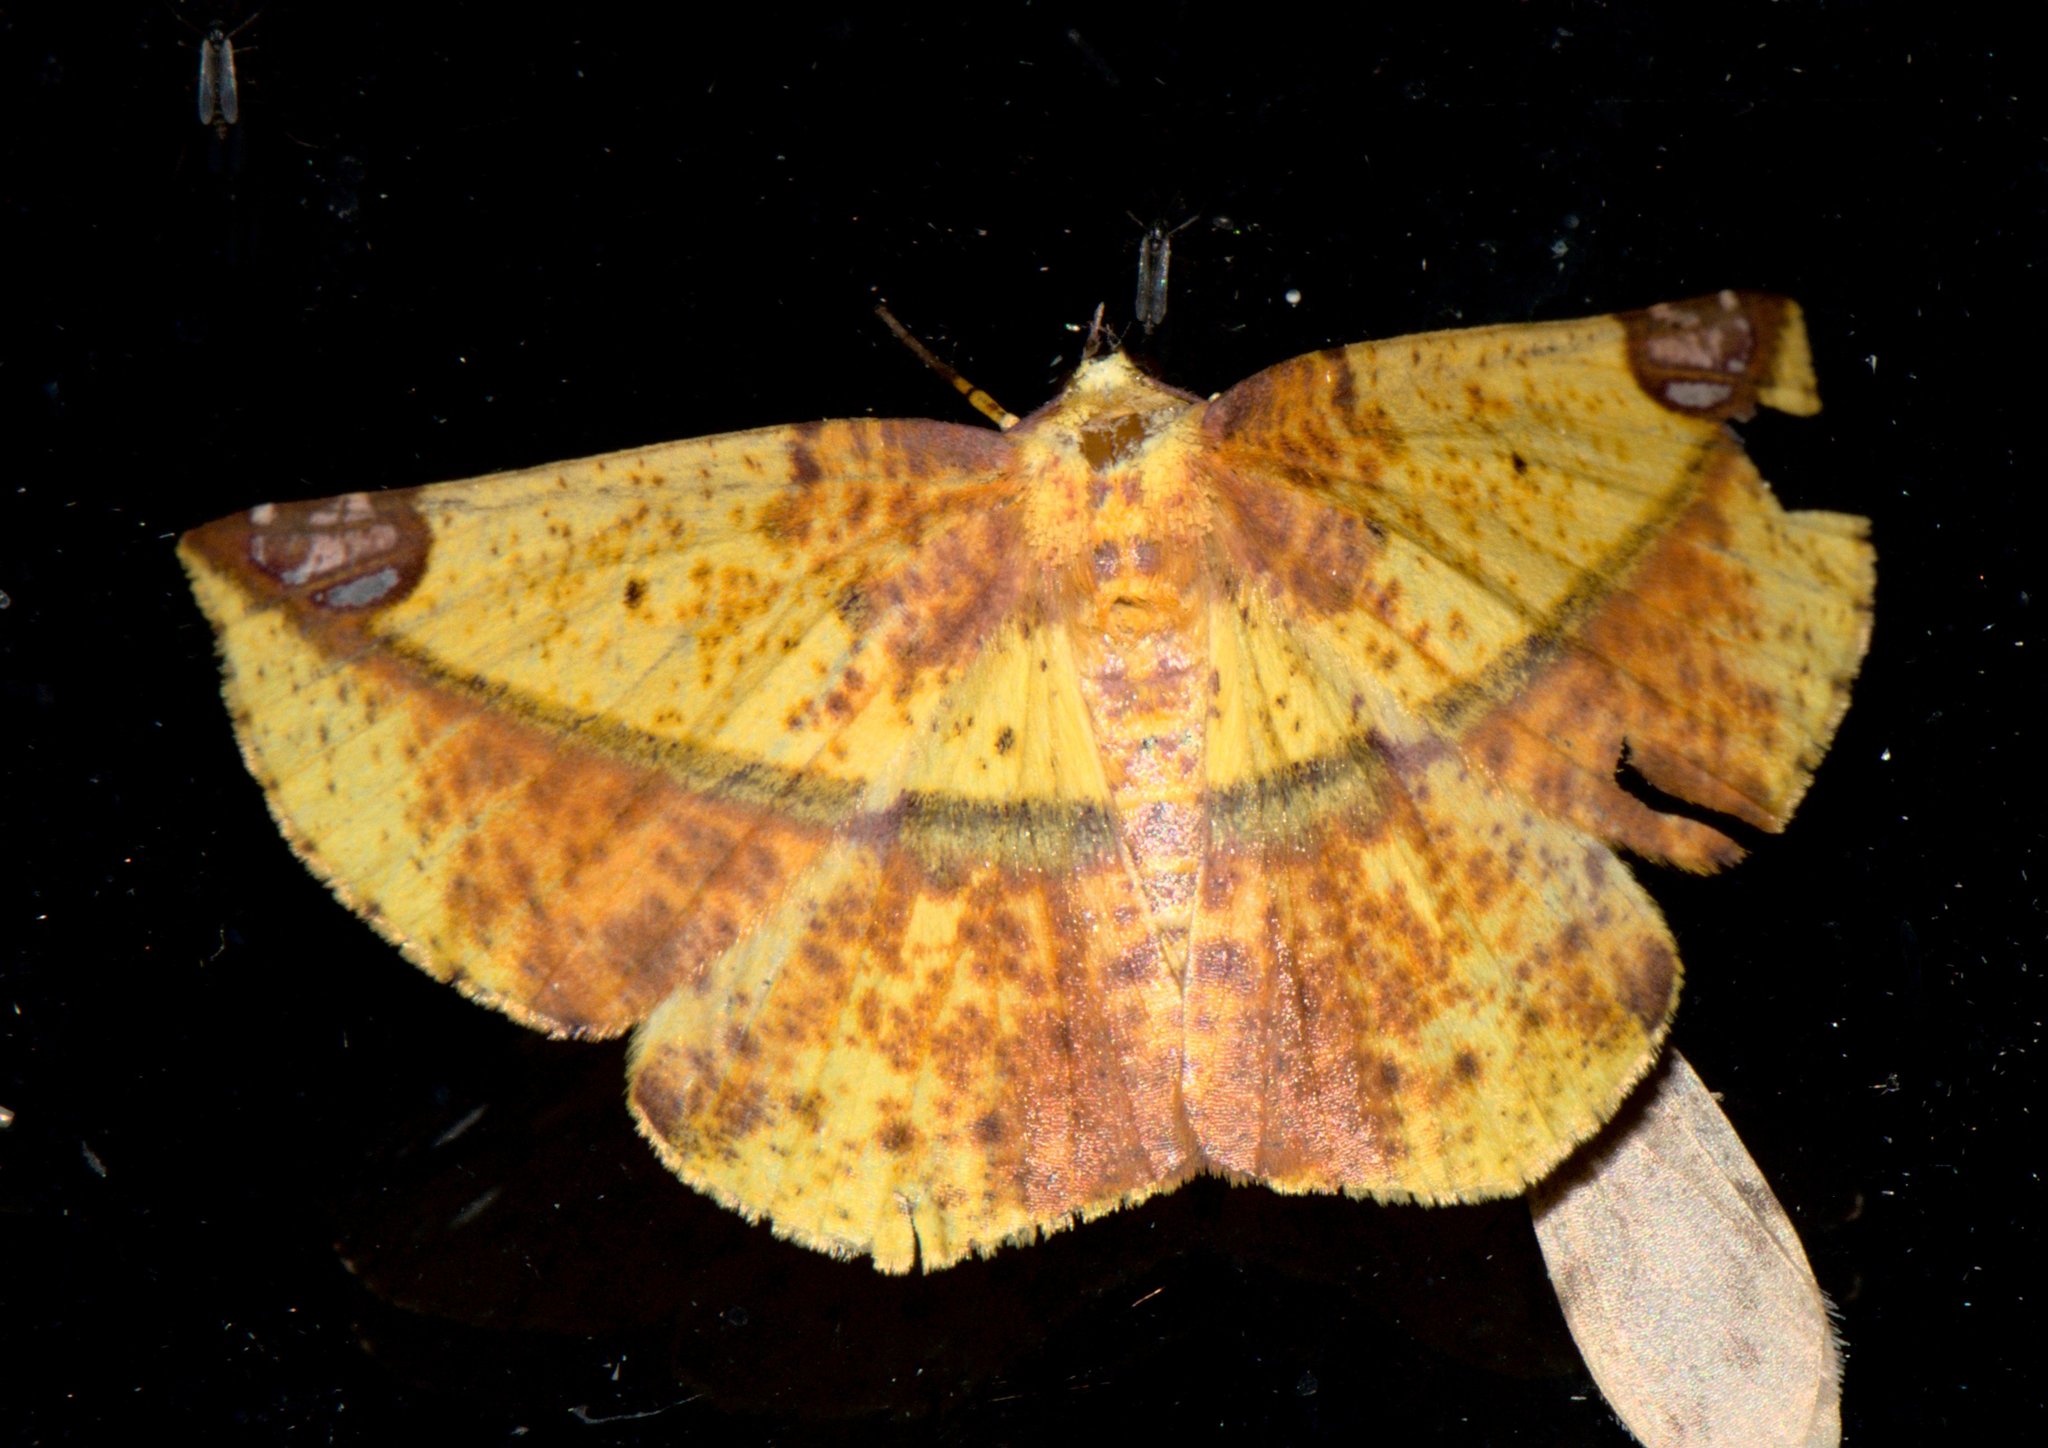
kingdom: Animalia
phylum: Arthropoda
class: Insecta
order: Lepidoptera
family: Geometridae
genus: Mimomiza
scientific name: Mimomiza cruentaria
